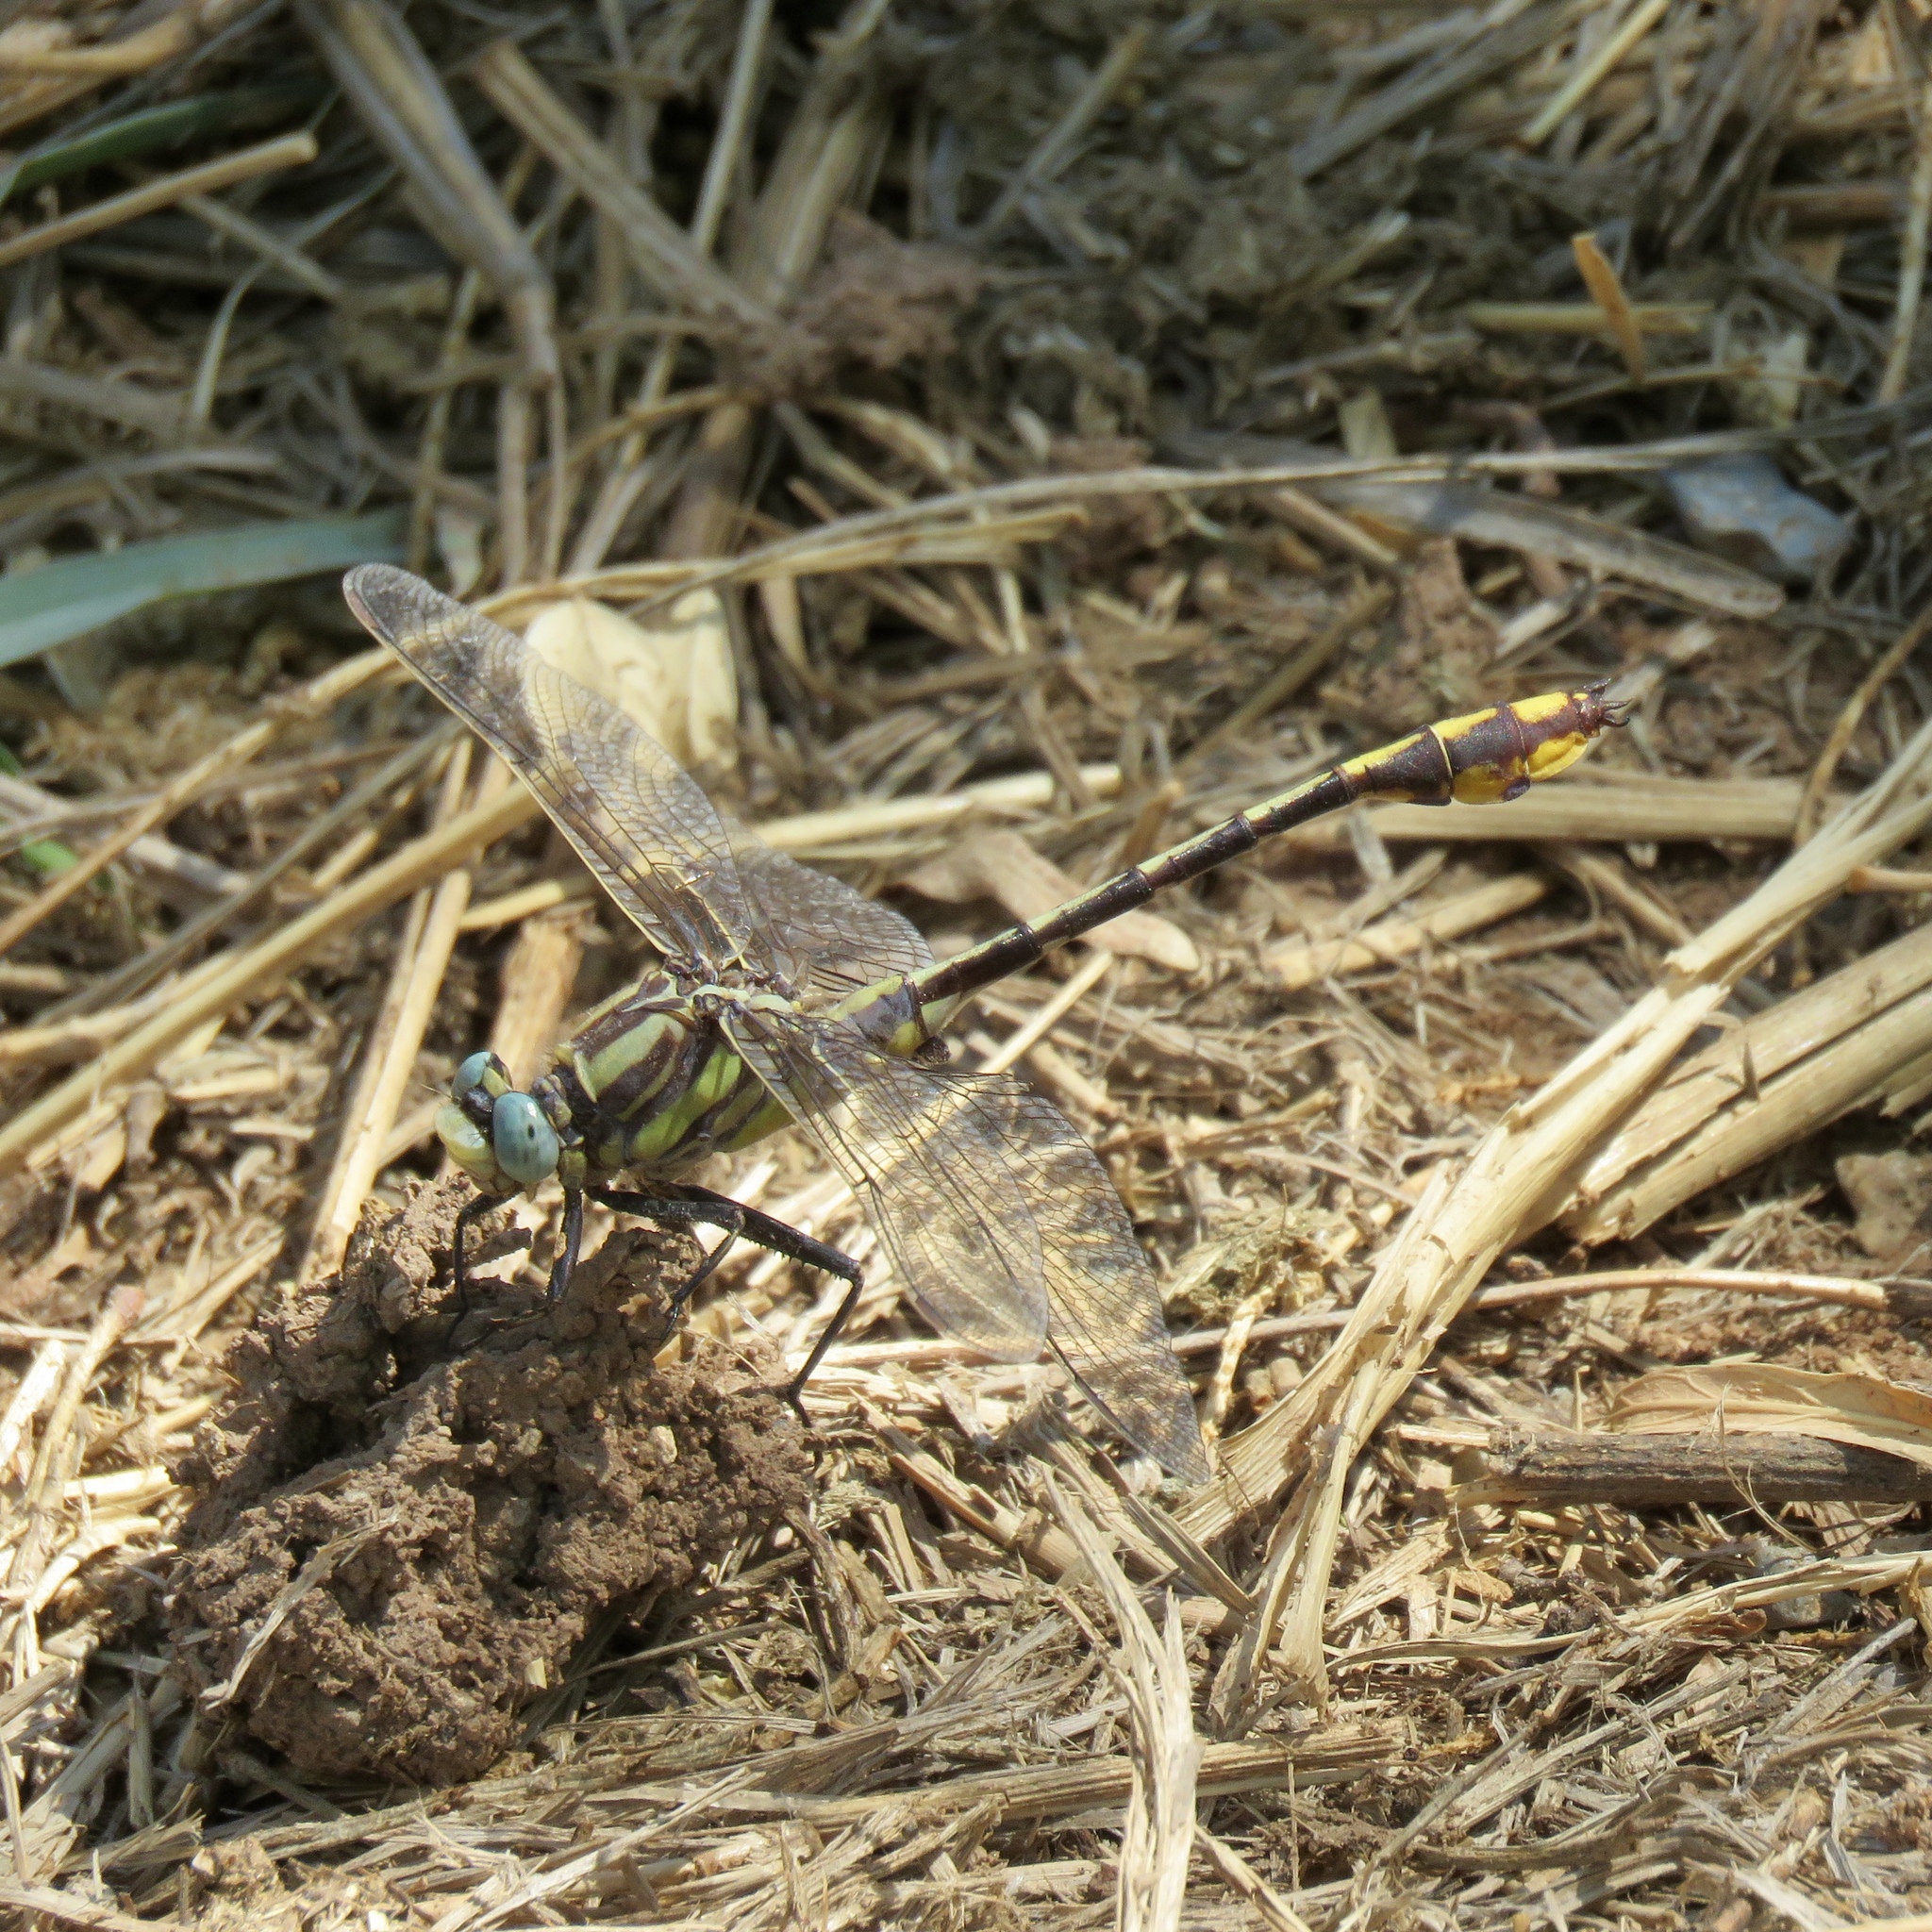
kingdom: Animalia
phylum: Arthropoda
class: Insecta
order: Odonata
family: Gomphidae
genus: Phanogomphus
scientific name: Phanogomphus militaris
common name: Sulphur-tipped clubtail
